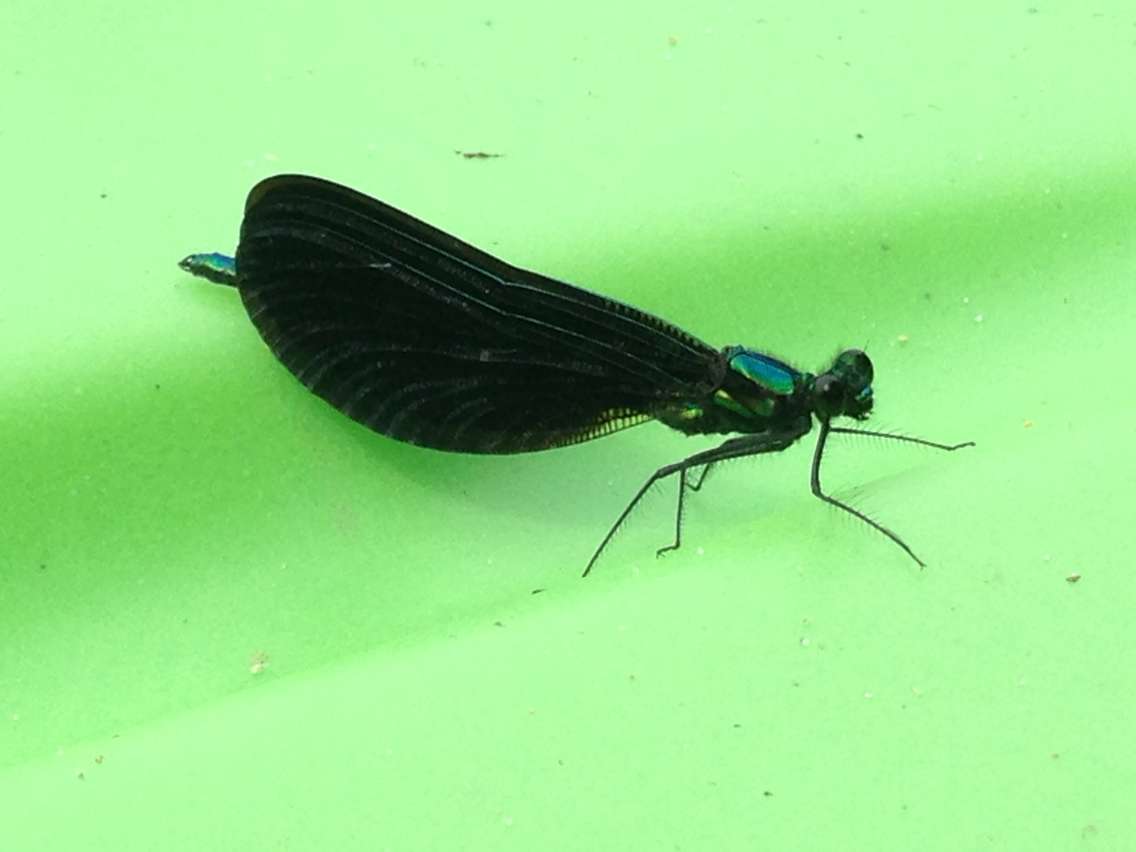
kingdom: Animalia
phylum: Arthropoda
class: Insecta
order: Odonata
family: Calopterygidae
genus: Calopteryx
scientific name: Calopteryx maculata
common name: Ebony jewelwing
